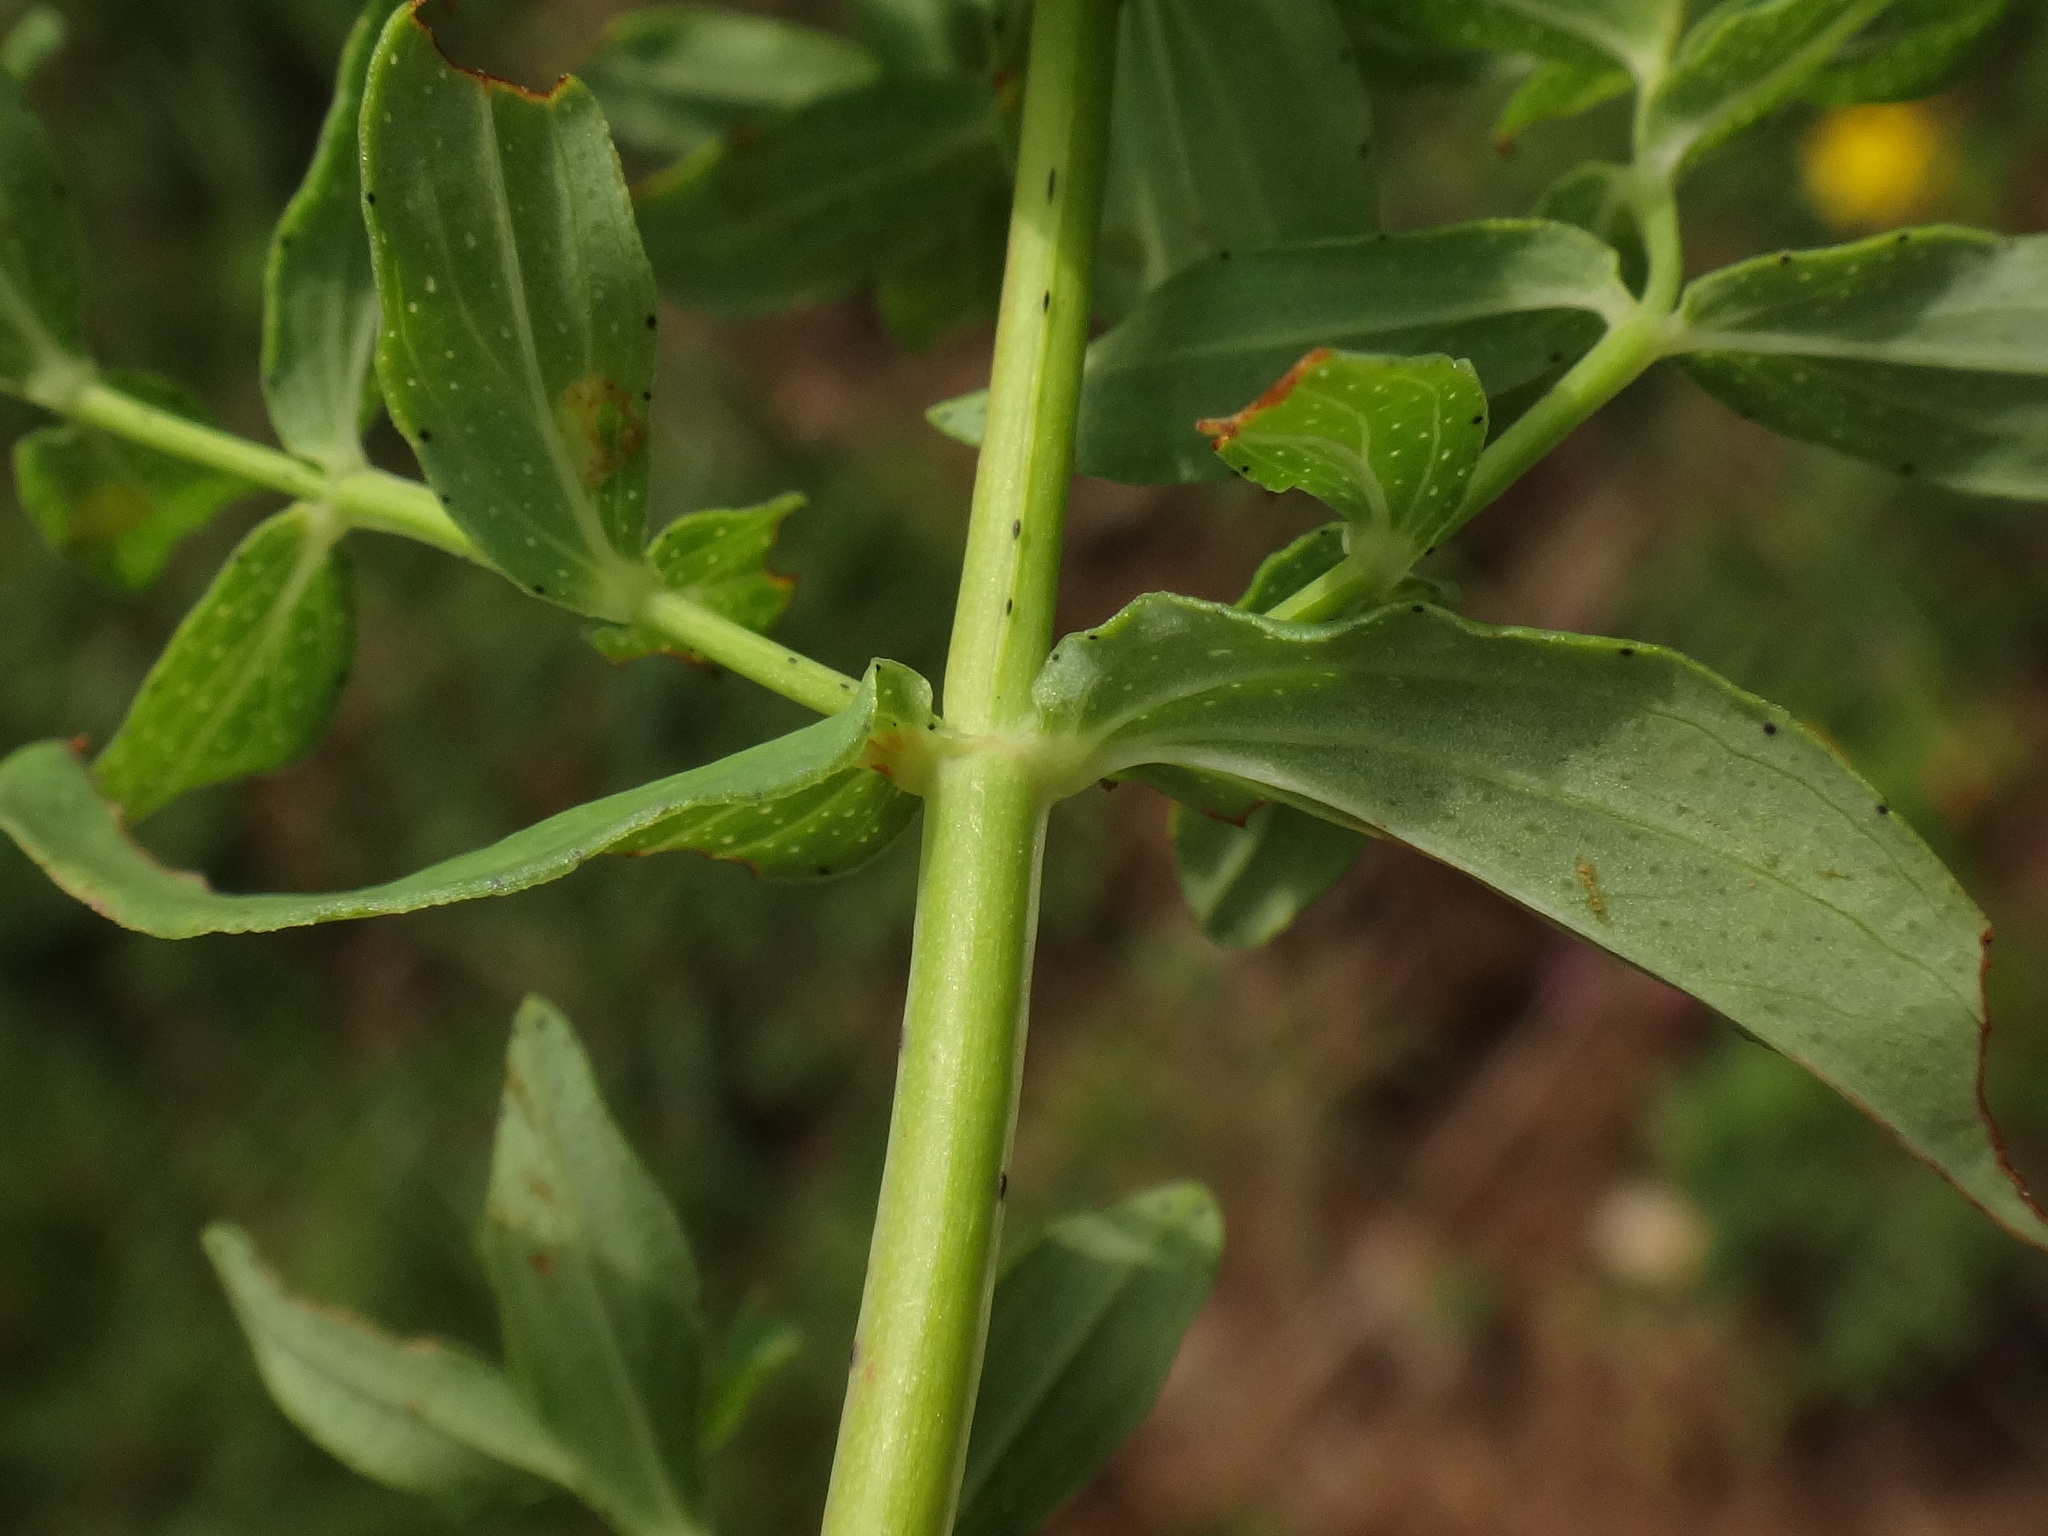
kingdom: Plantae
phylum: Tracheophyta
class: Magnoliopsida
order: Malpighiales
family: Hypericaceae
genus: Hypericum
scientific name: Hypericum perforatum
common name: Common st. johnswort
